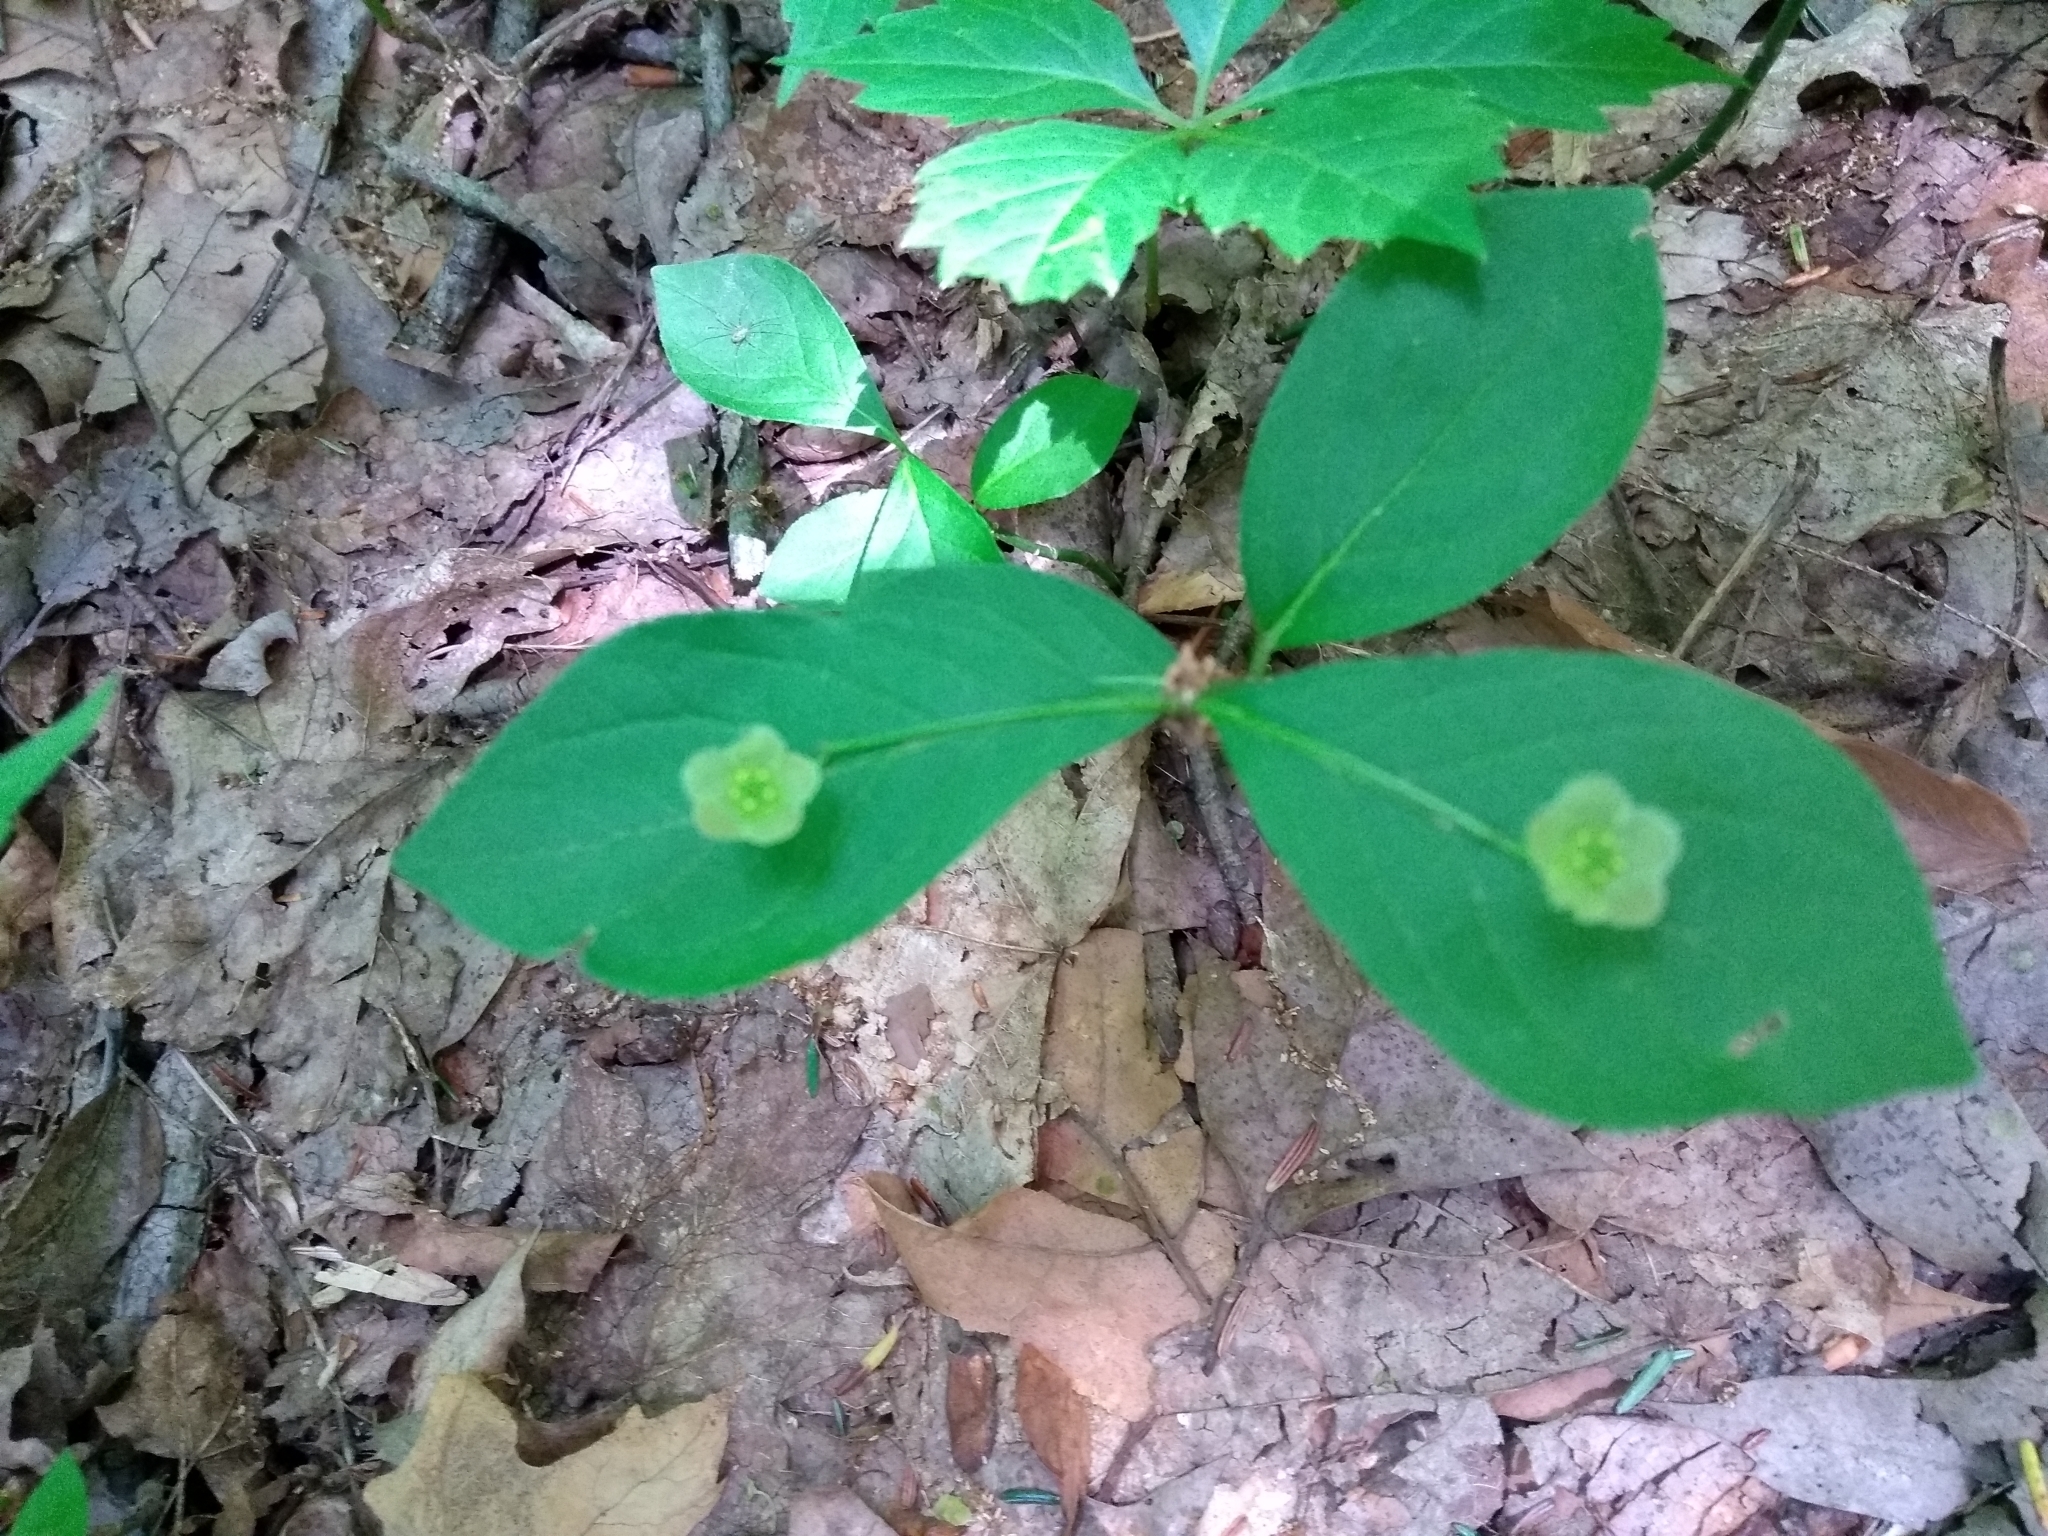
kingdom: Plantae
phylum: Tracheophyta
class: Magnoliopsida
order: Celastrales
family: Celastraceae
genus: Euonymus
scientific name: Euonymus obovatus
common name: Running strawberry-bush
